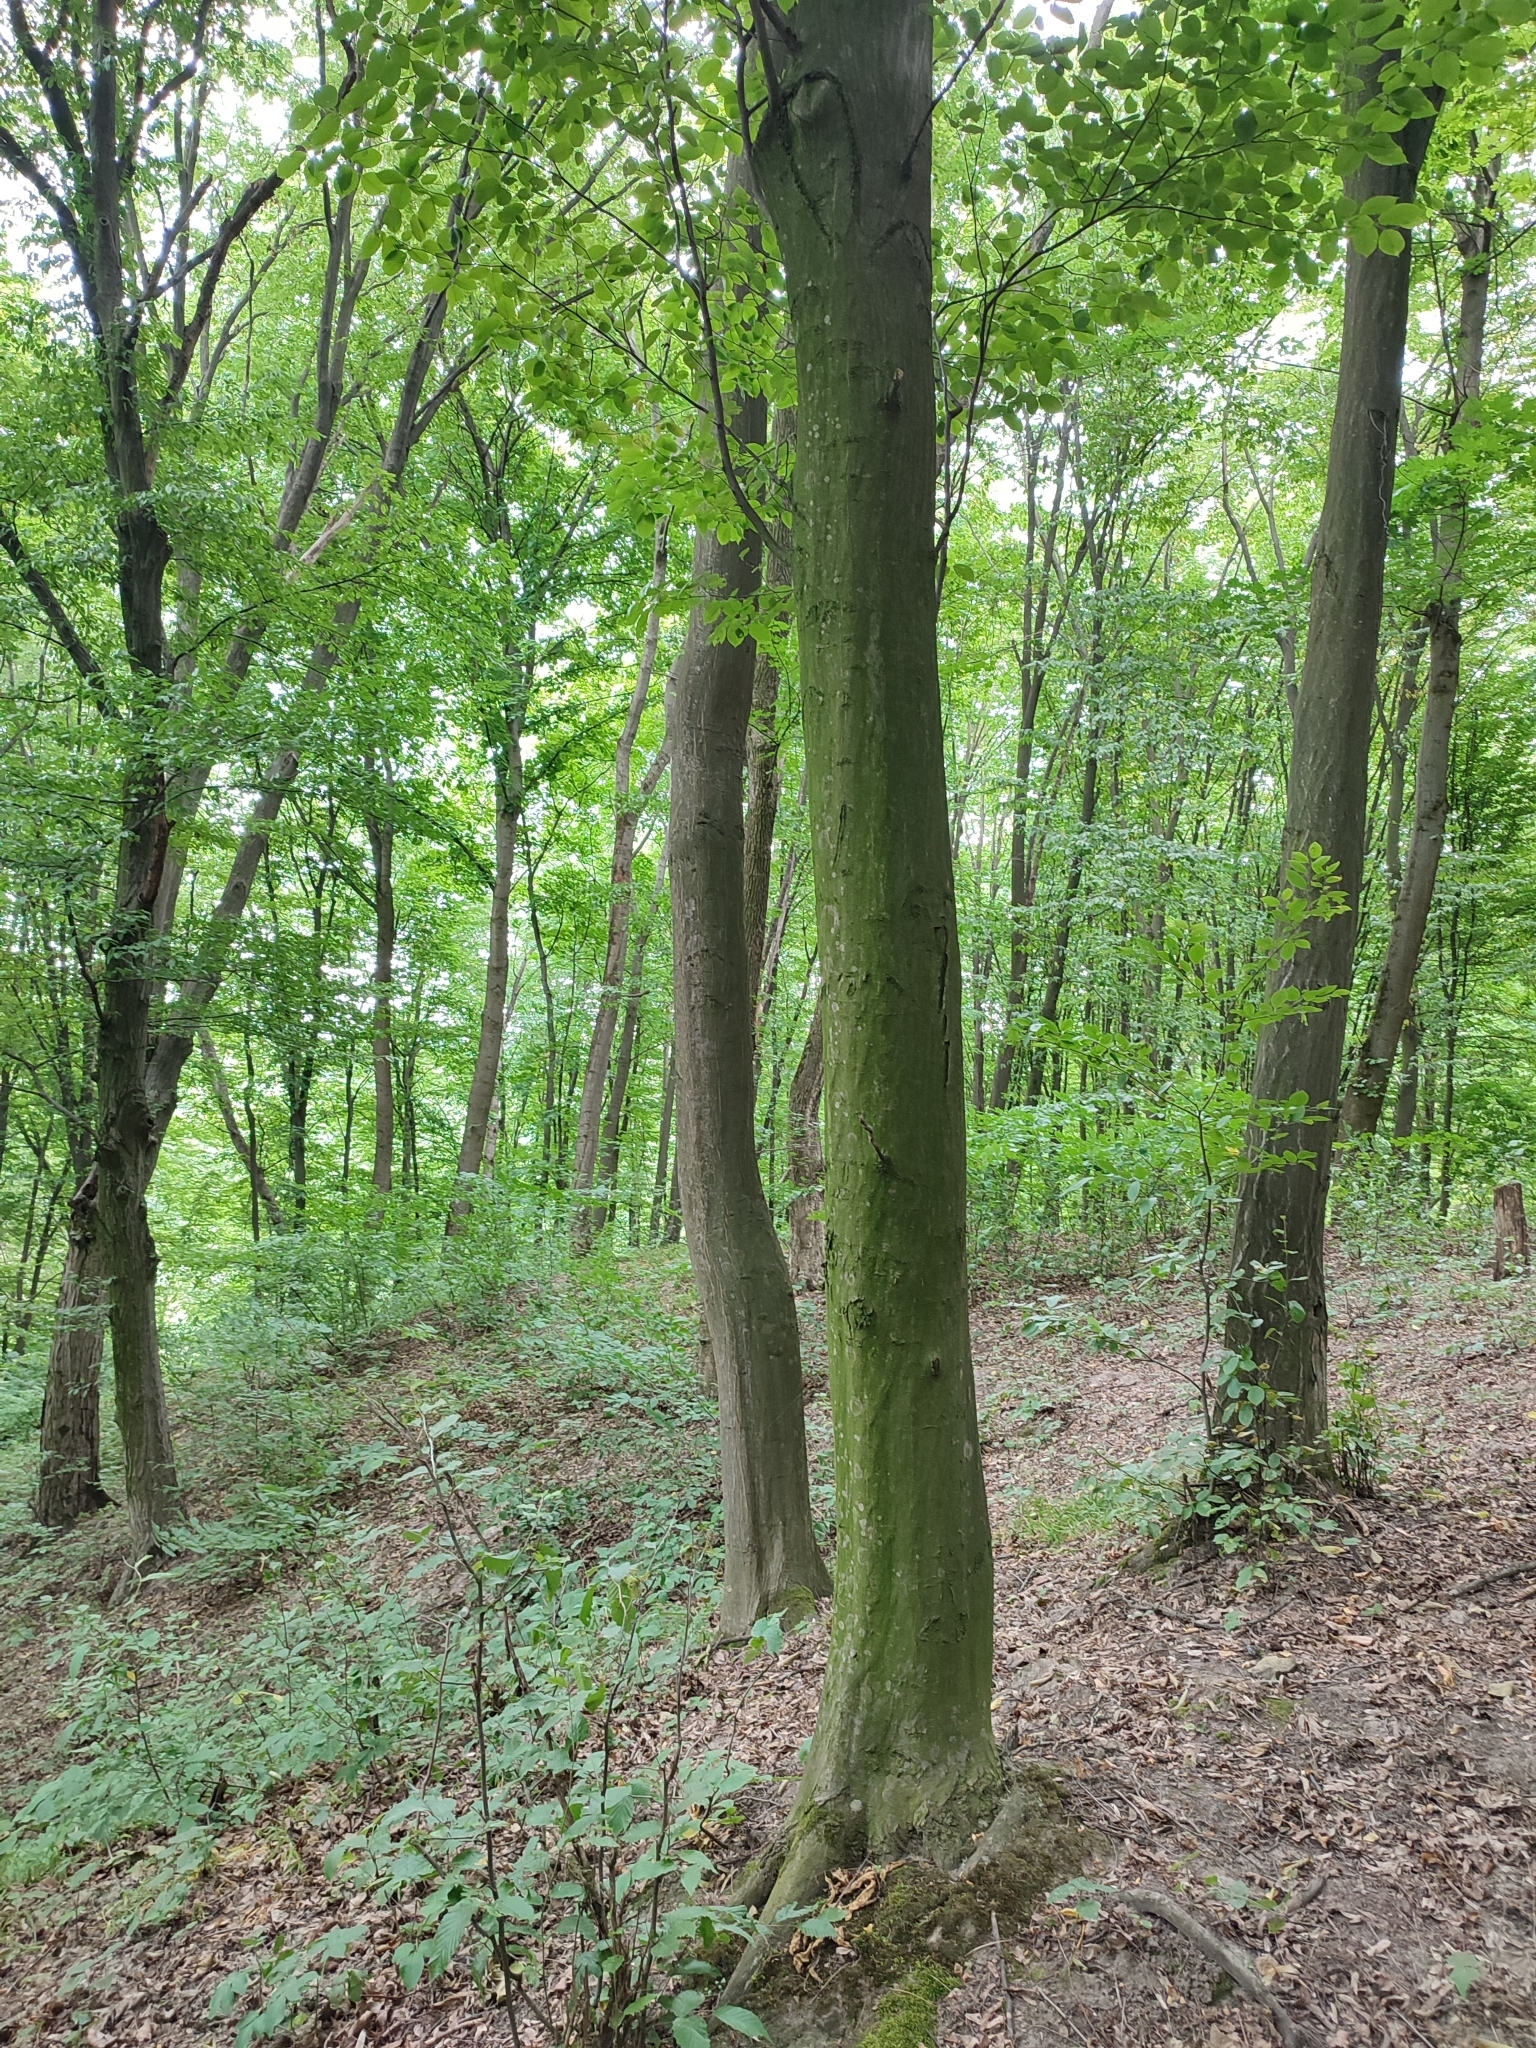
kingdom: Plantae
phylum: Tracheophyta
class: Magnoliopsida
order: Fagales
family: Betulaceae
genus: Carpinus
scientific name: Carpinus betulus
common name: Hornbeam
